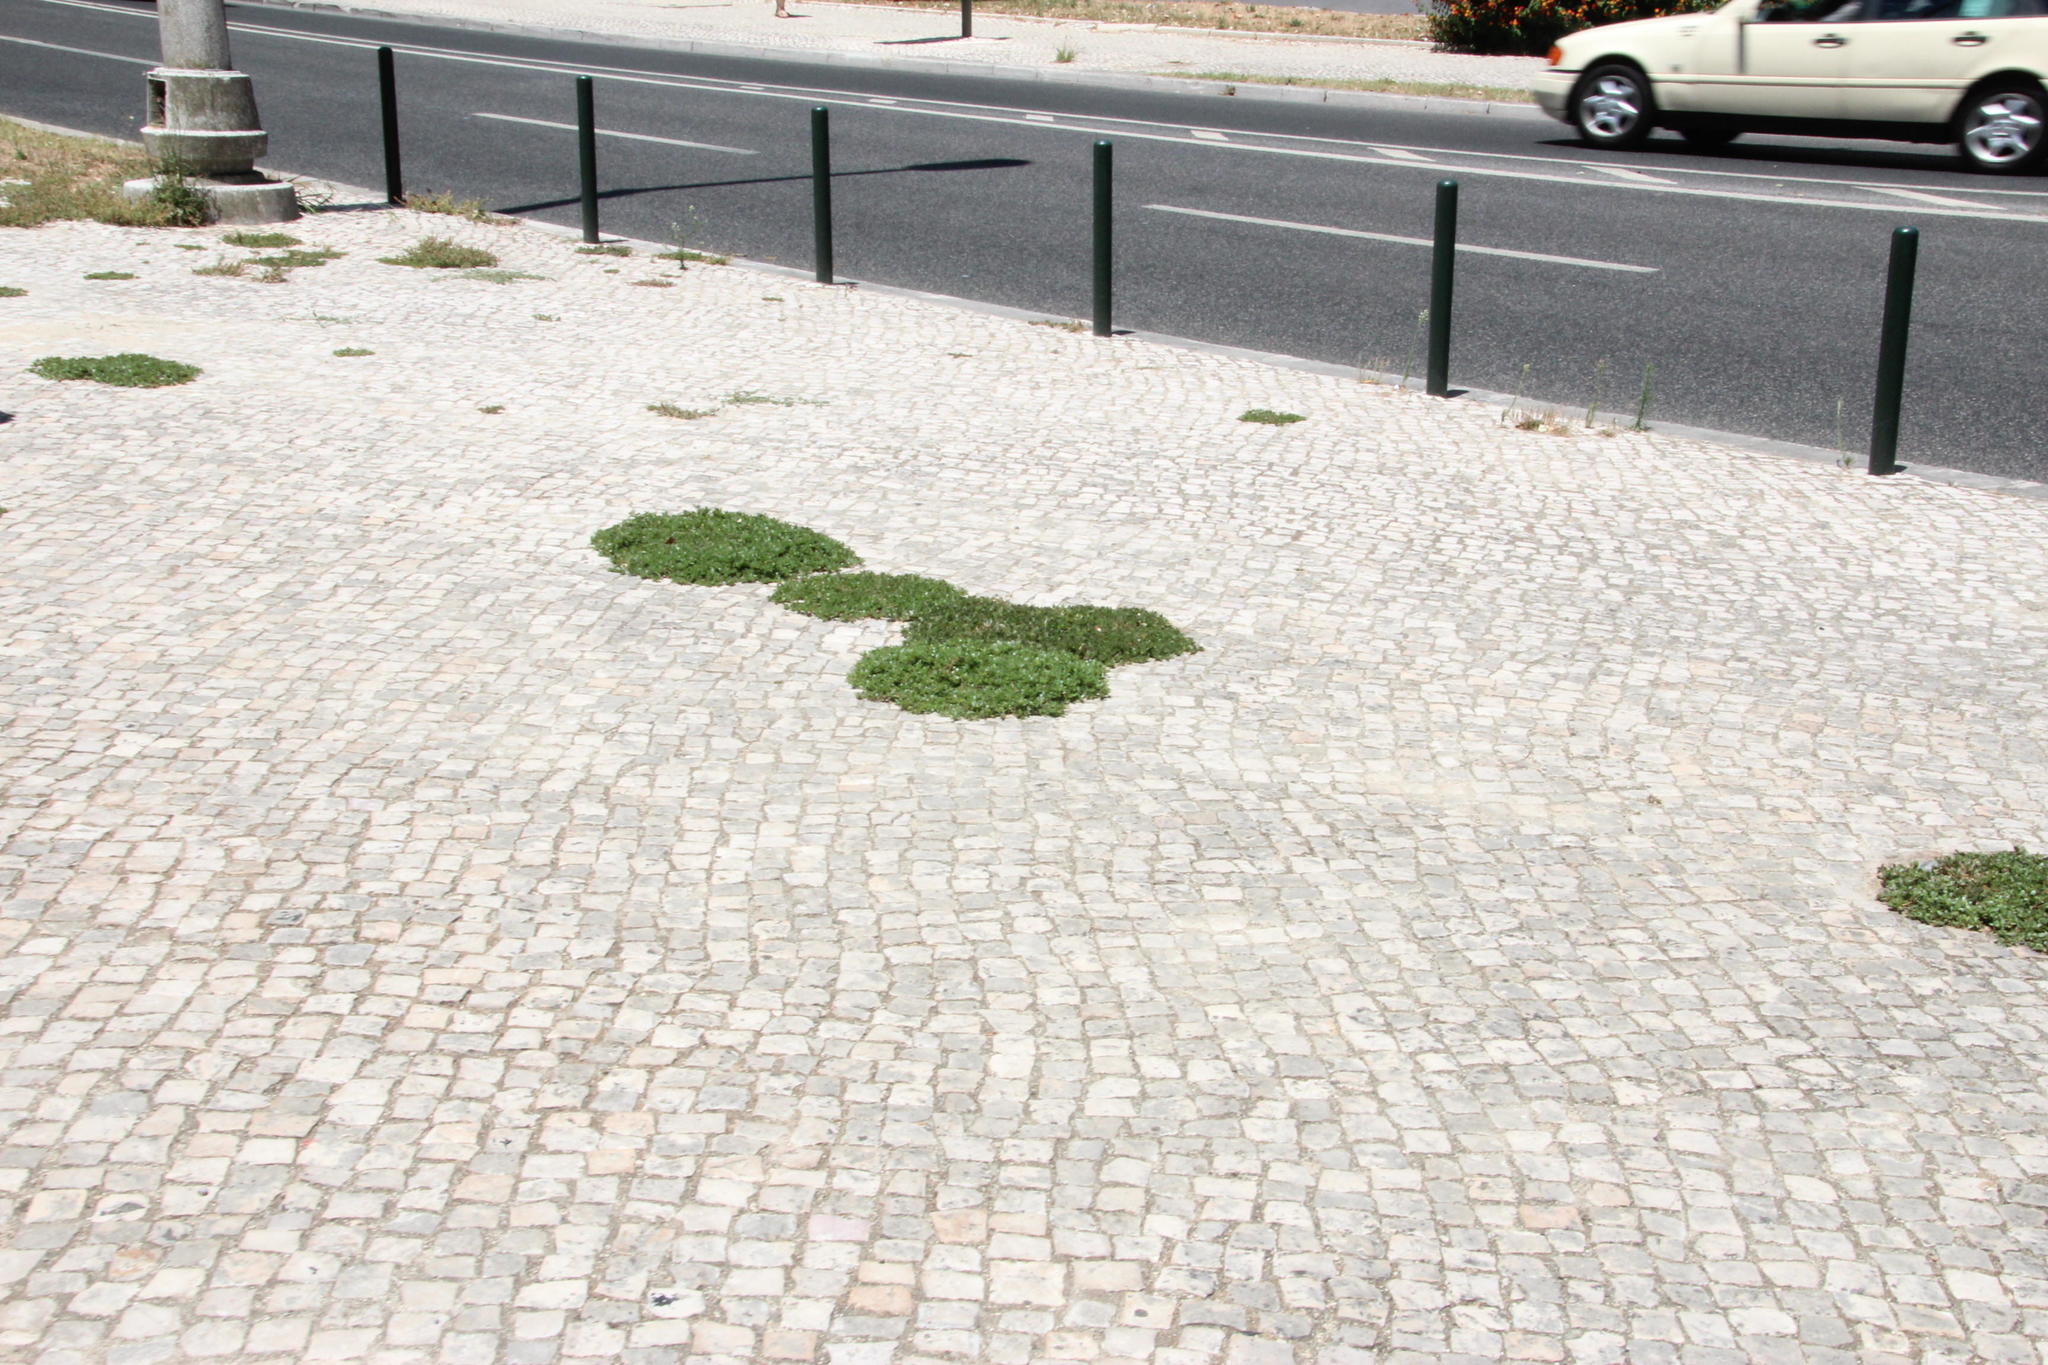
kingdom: Plantae
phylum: Tracheophyta
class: Magnoliopsida
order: Caryophyllales
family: Portulacaceae
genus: Portulaca
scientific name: Portulaca oleracea
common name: Common purslane
